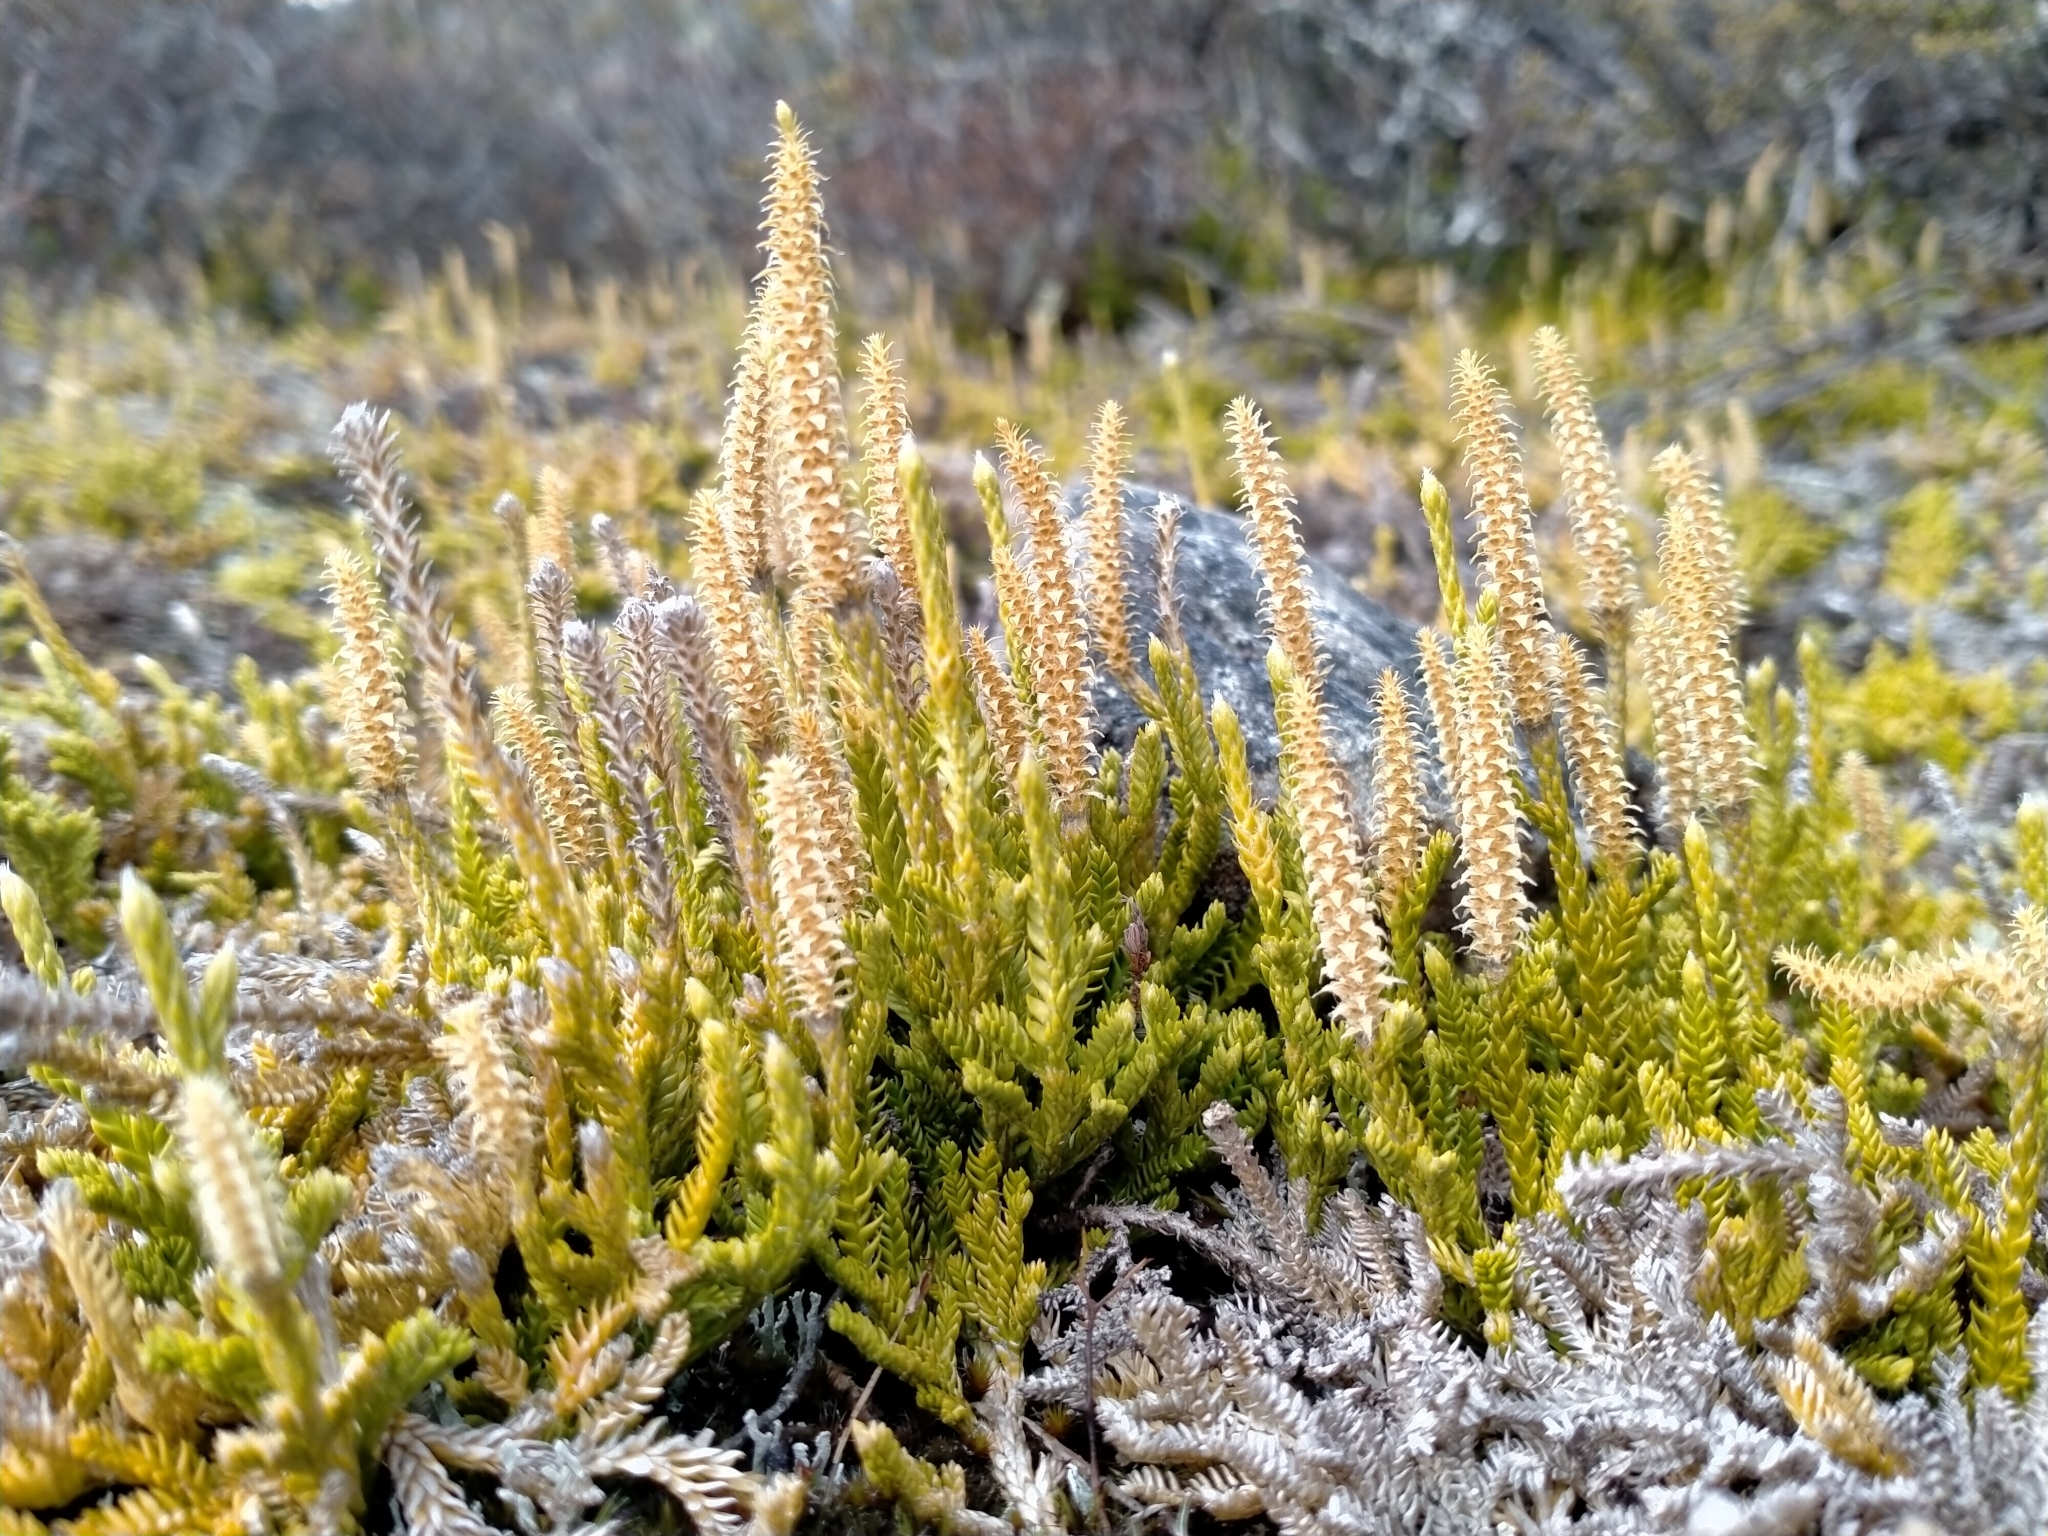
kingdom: Plantae
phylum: Tracheophyta
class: Lycopodiopsida
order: Lycopodiales
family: Lycopodiaceae
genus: Diphasium
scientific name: Diphasium scariosum
